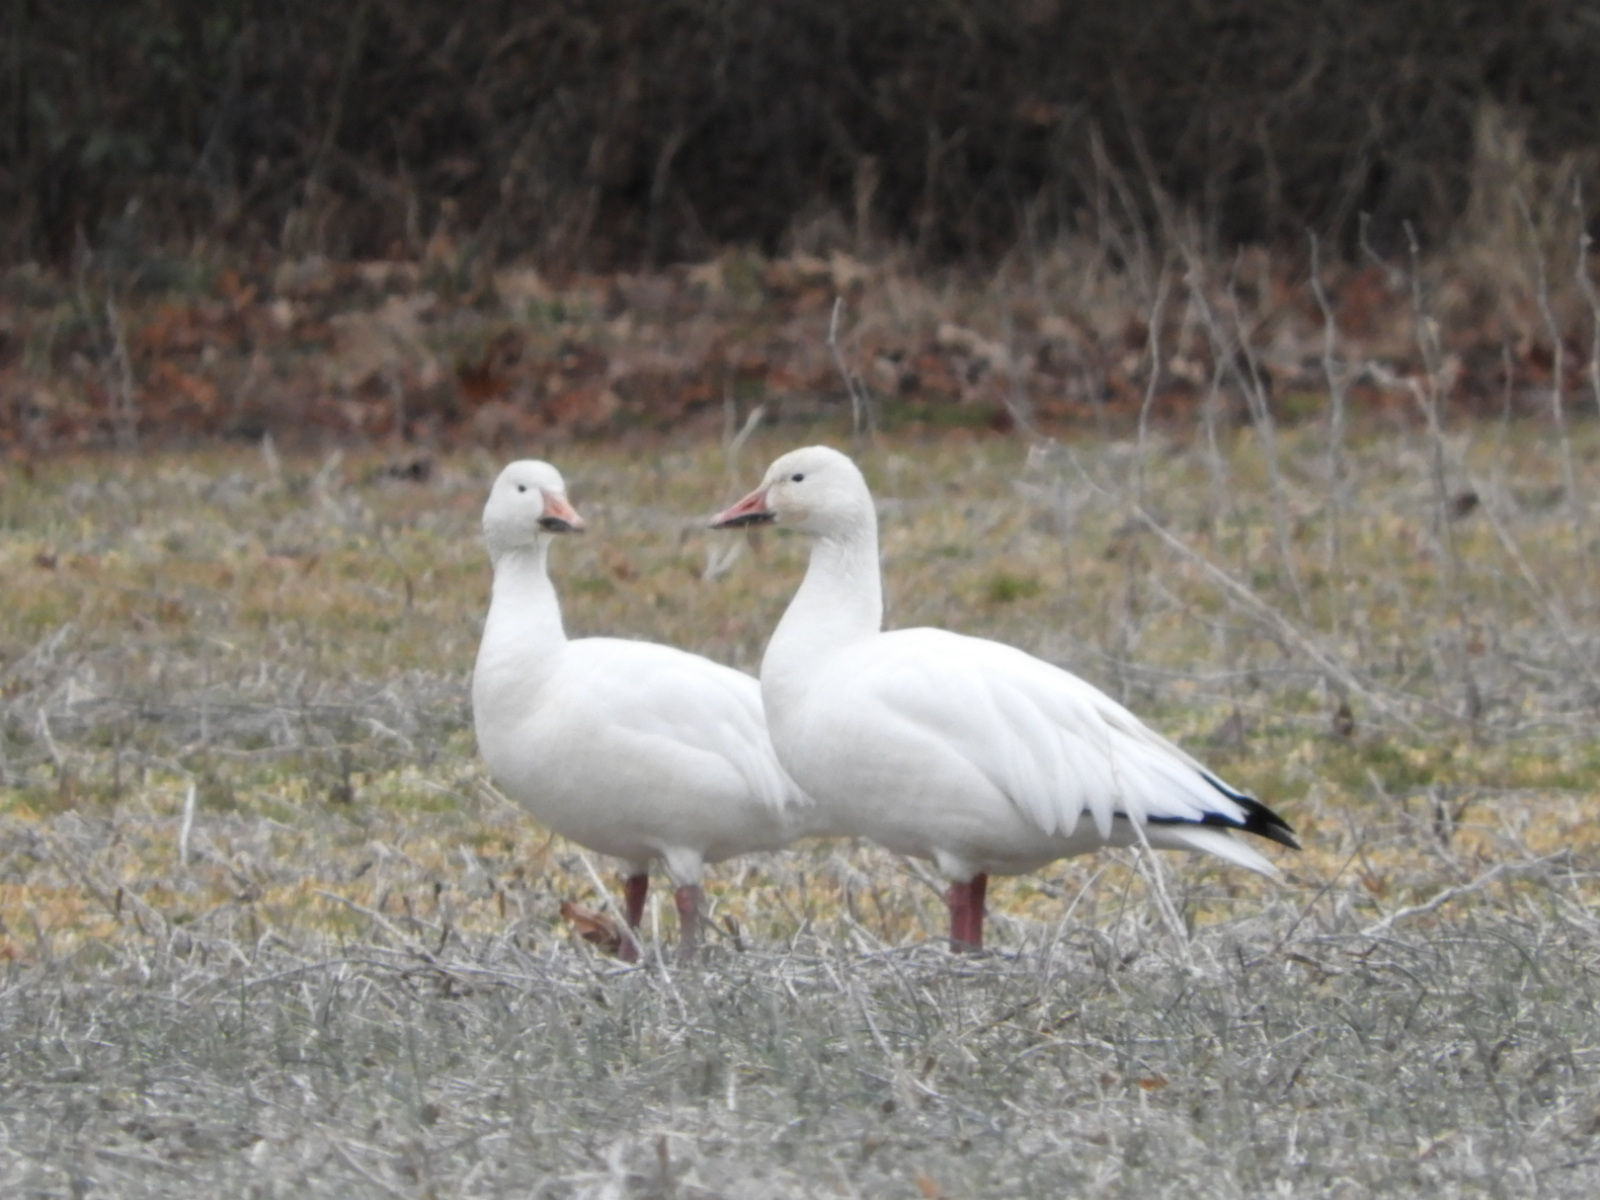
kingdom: Animalia
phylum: Chordata
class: Aves
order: Anseriformes
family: Anatidae
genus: Anser
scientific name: Anser caerulescens
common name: Snow goose
